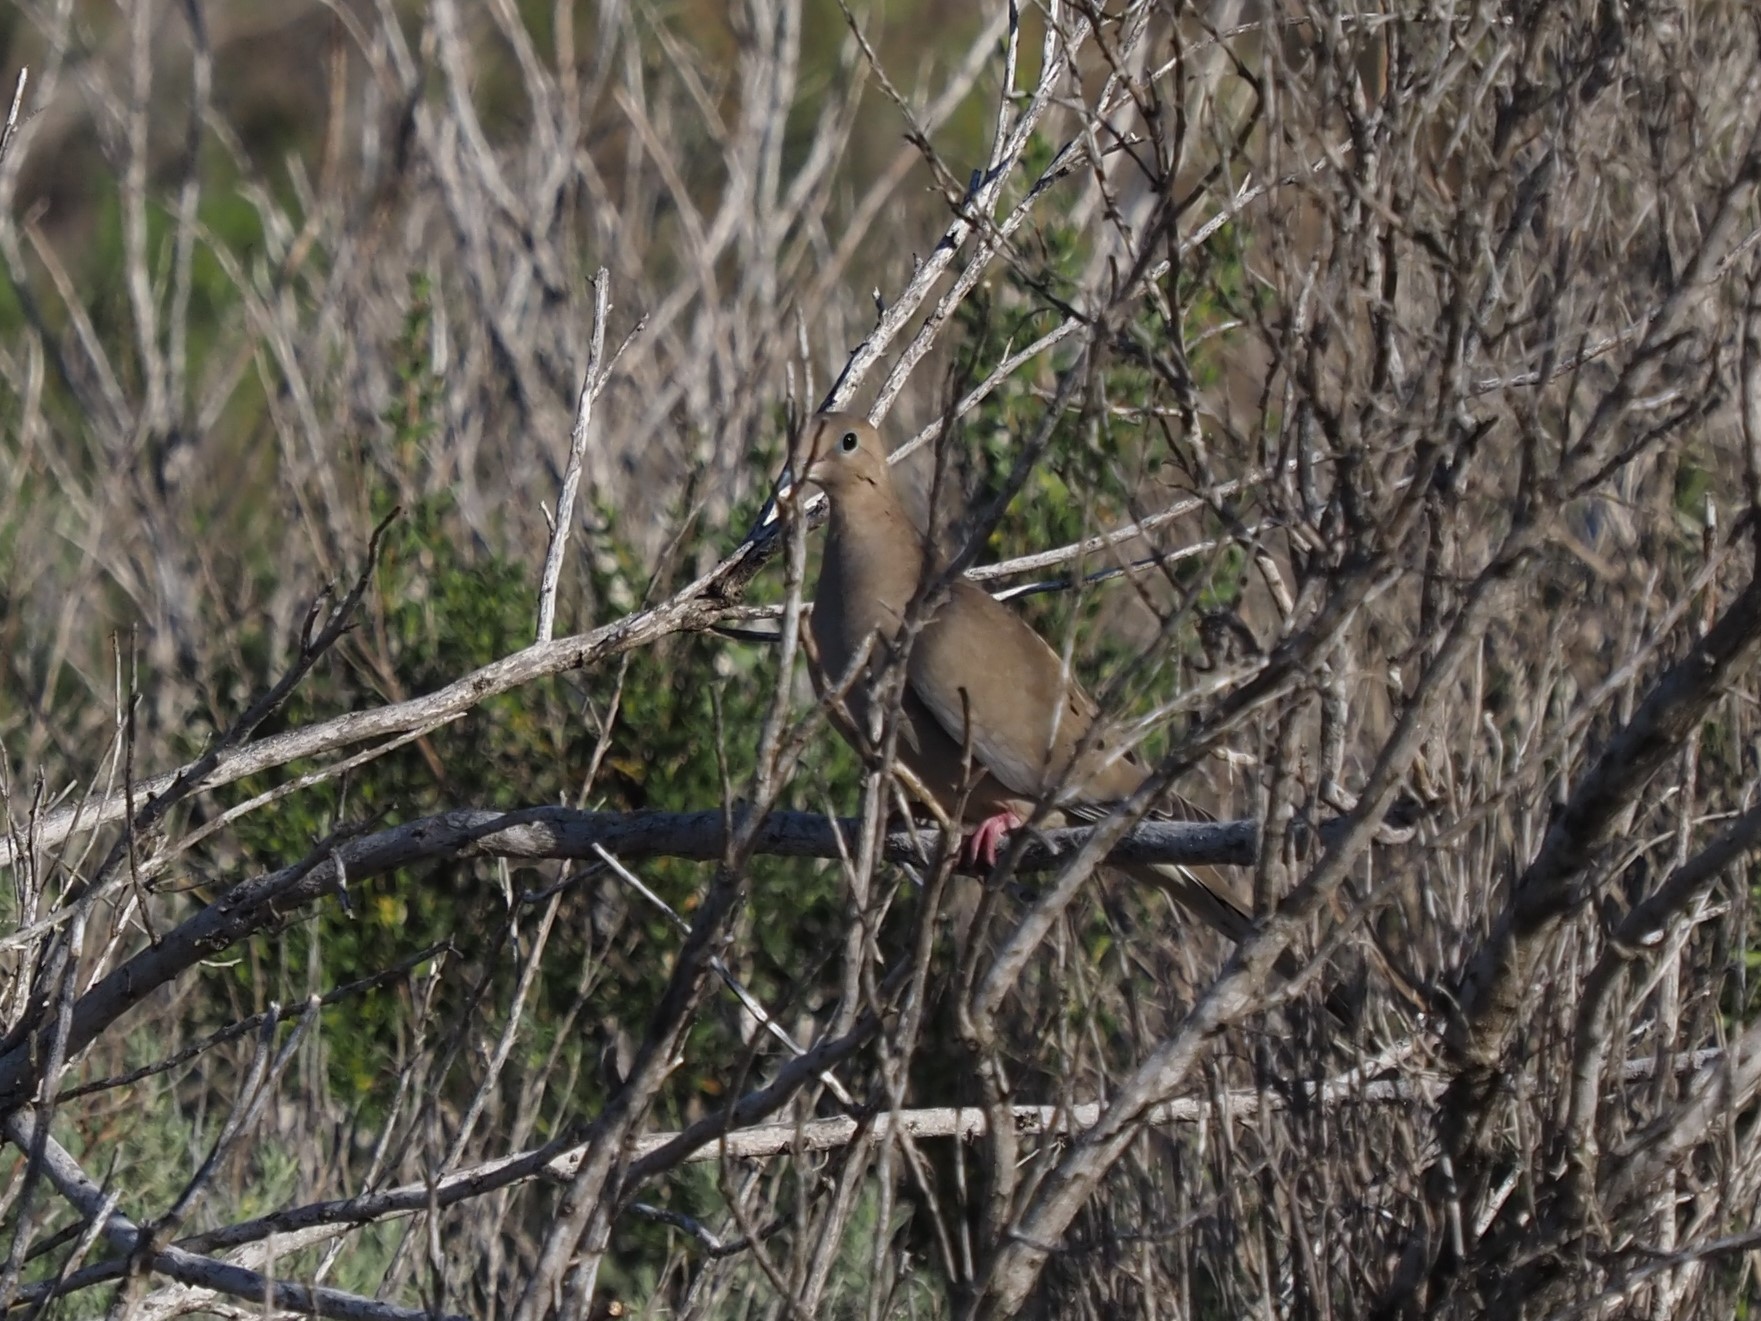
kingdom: Animalia
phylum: Chordata
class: Aves
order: Columbiformes
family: Columbidae
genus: Zenaida
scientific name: Zenaida macroura
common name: Mourning dove
